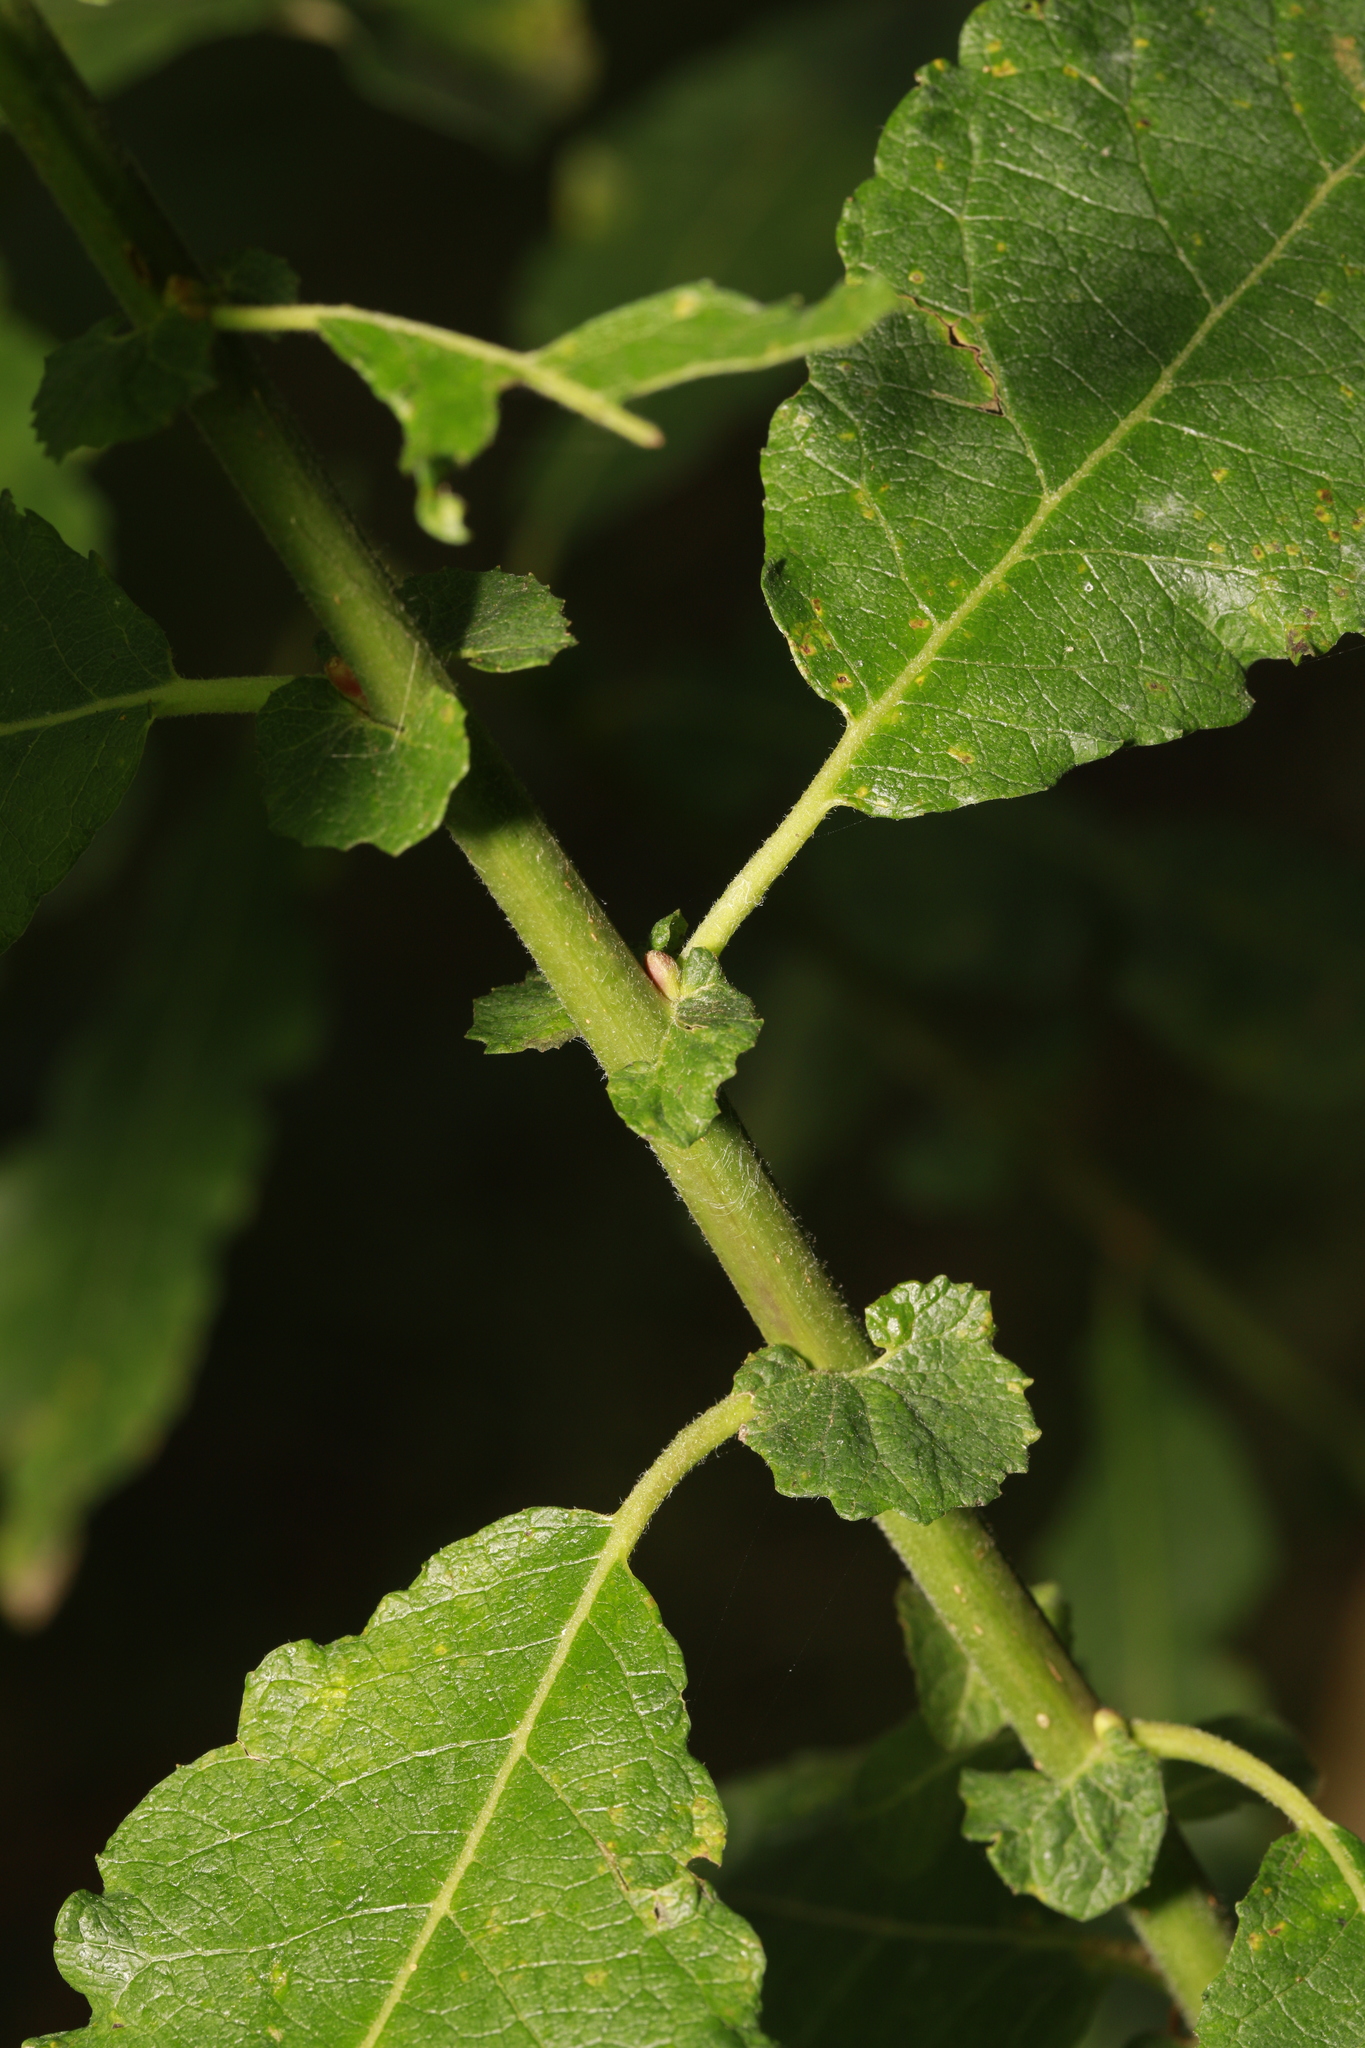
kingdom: Plantae
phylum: Tracheophyta
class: Magnoliopsida
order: Malpighiales
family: Salicaceae
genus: Salix
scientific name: Salix cinerea
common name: Common sallow
